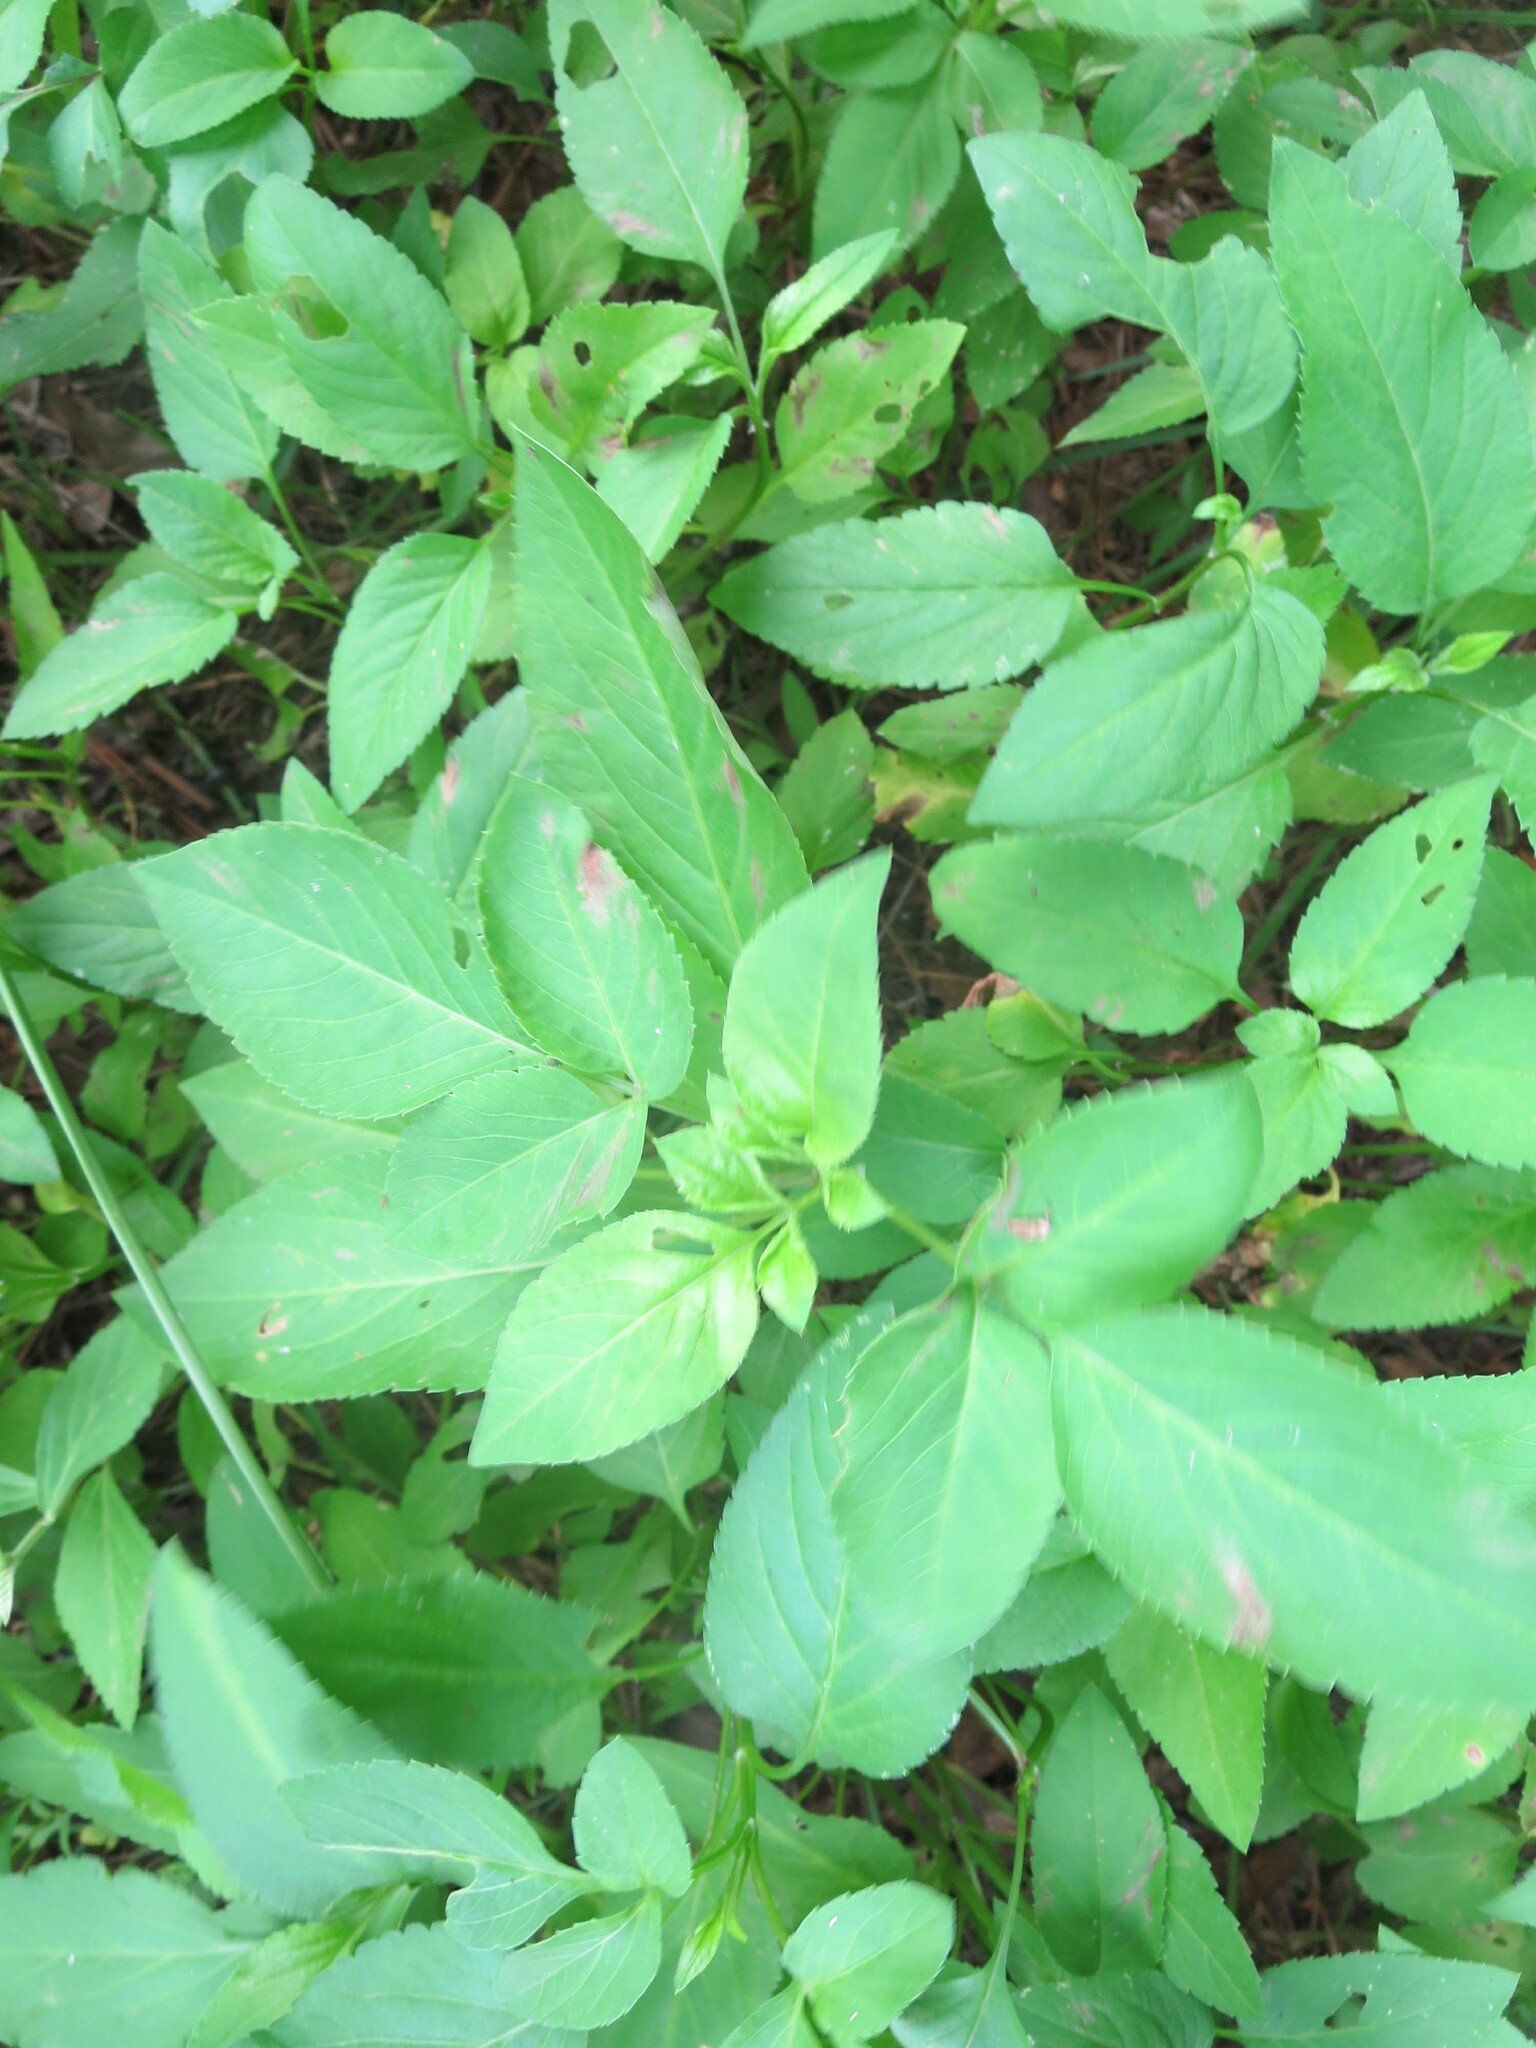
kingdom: Plantae
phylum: Tracheophyta
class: Magnoliopsida
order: Asterales
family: Asteraceae
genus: Bidens
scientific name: Bidens alba
